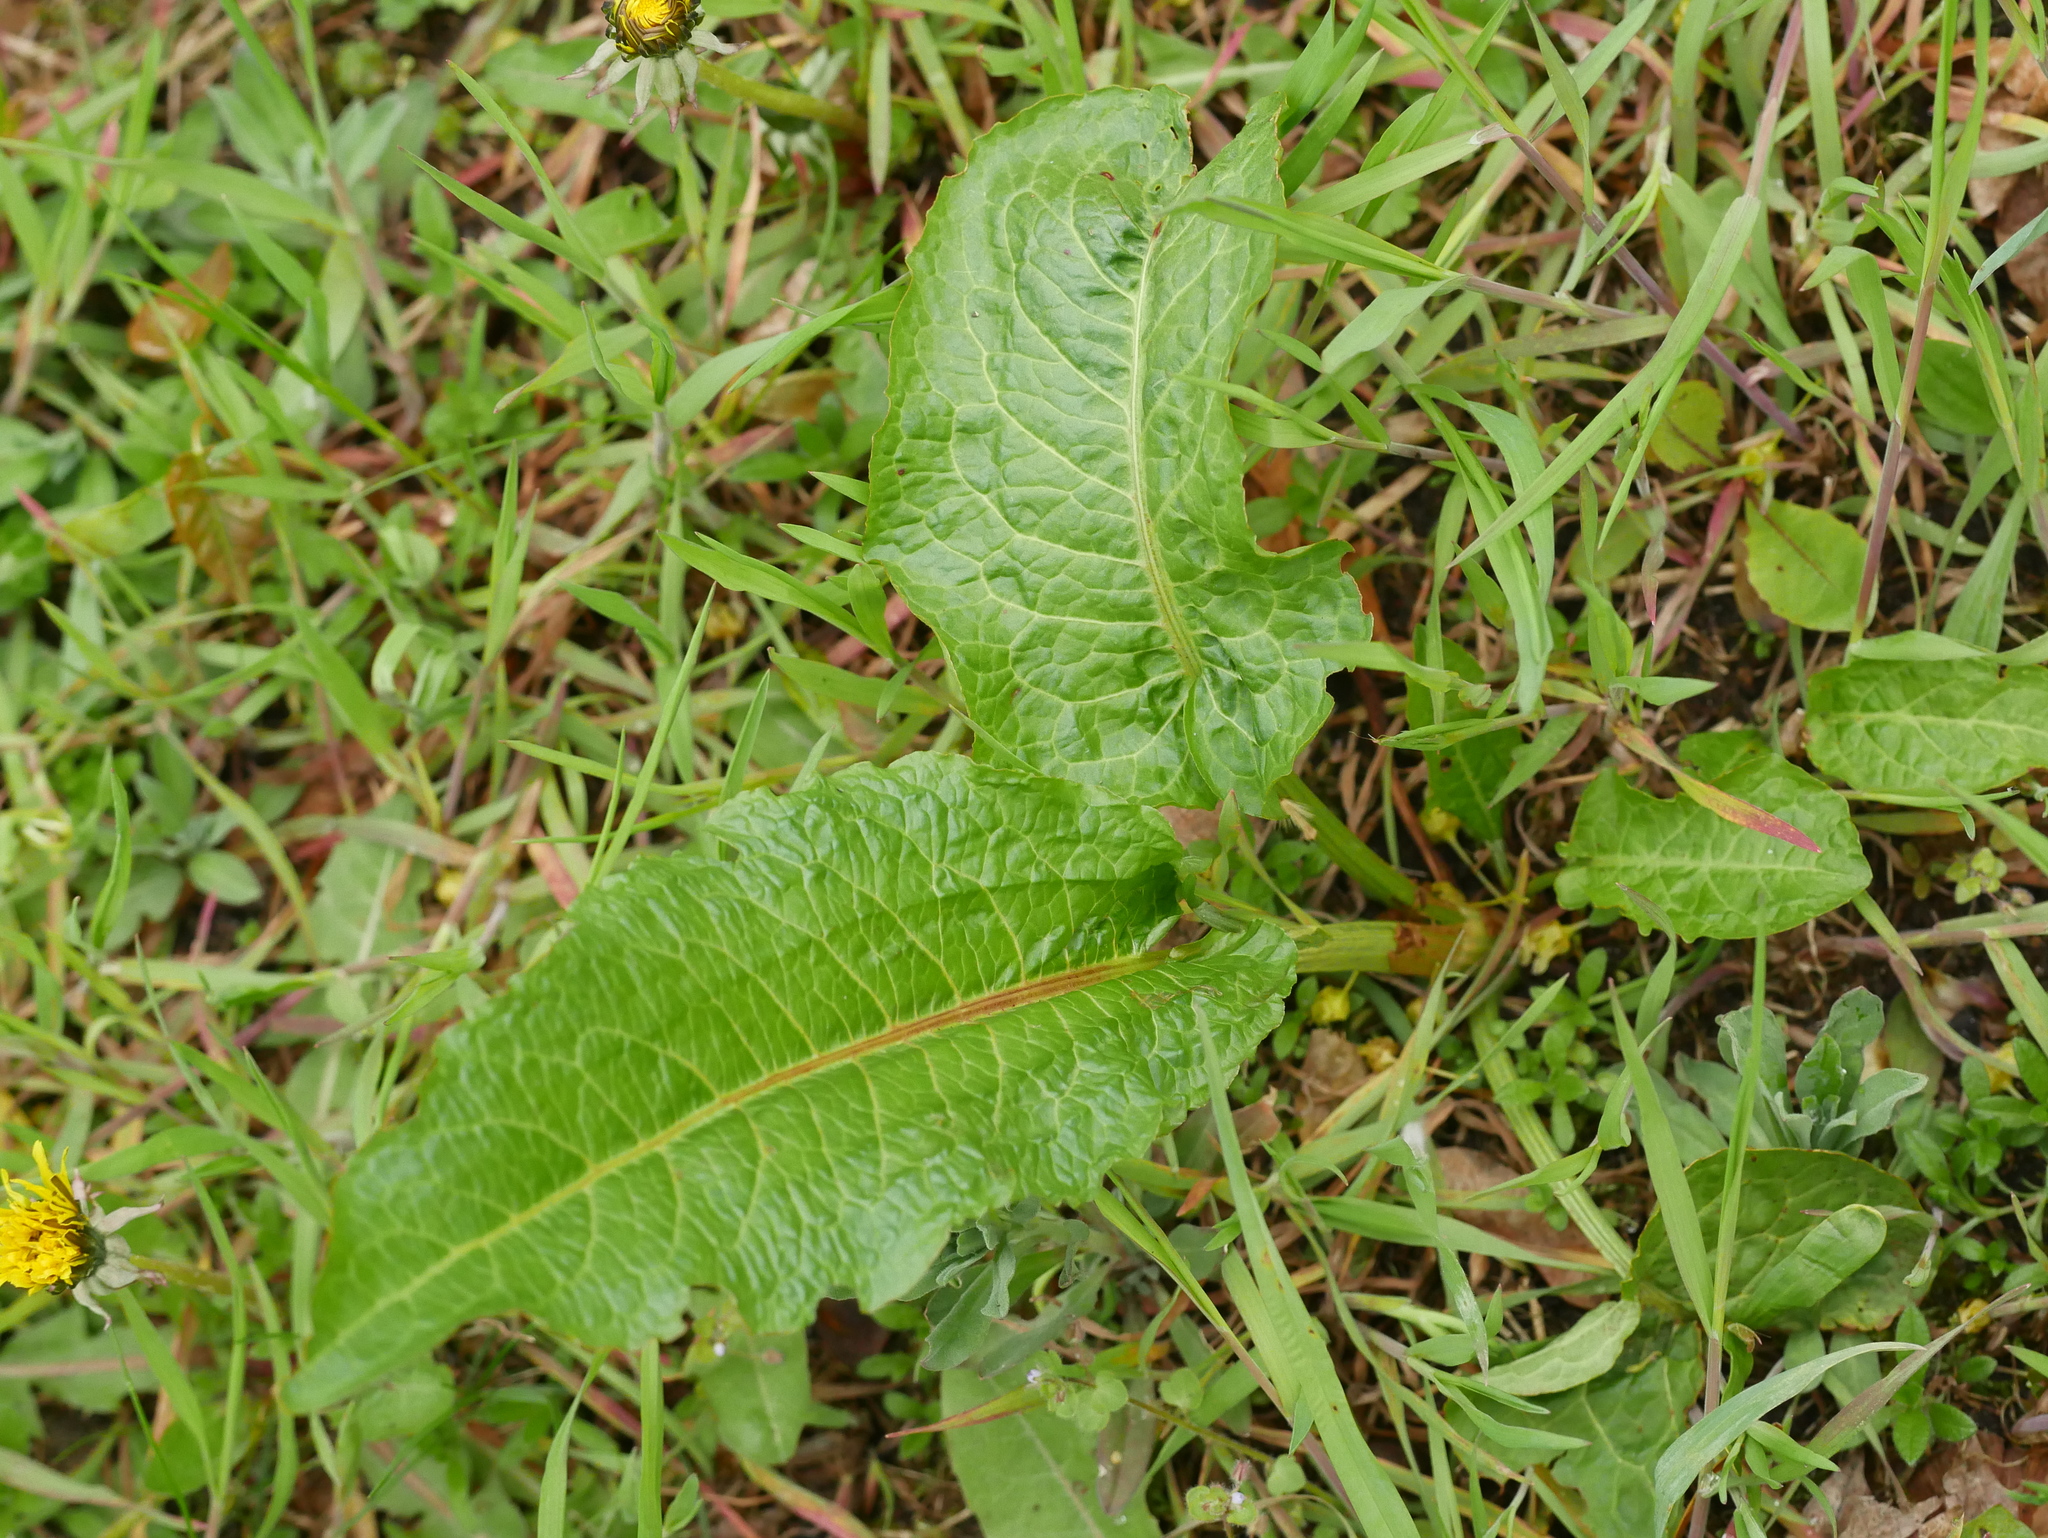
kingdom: Plantae
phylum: Tracheophyta
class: Magnoliopsida
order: Caryophyllales
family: Polygonaceae
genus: Rumex
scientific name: Rumex obtusifolius
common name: Bitter dock
